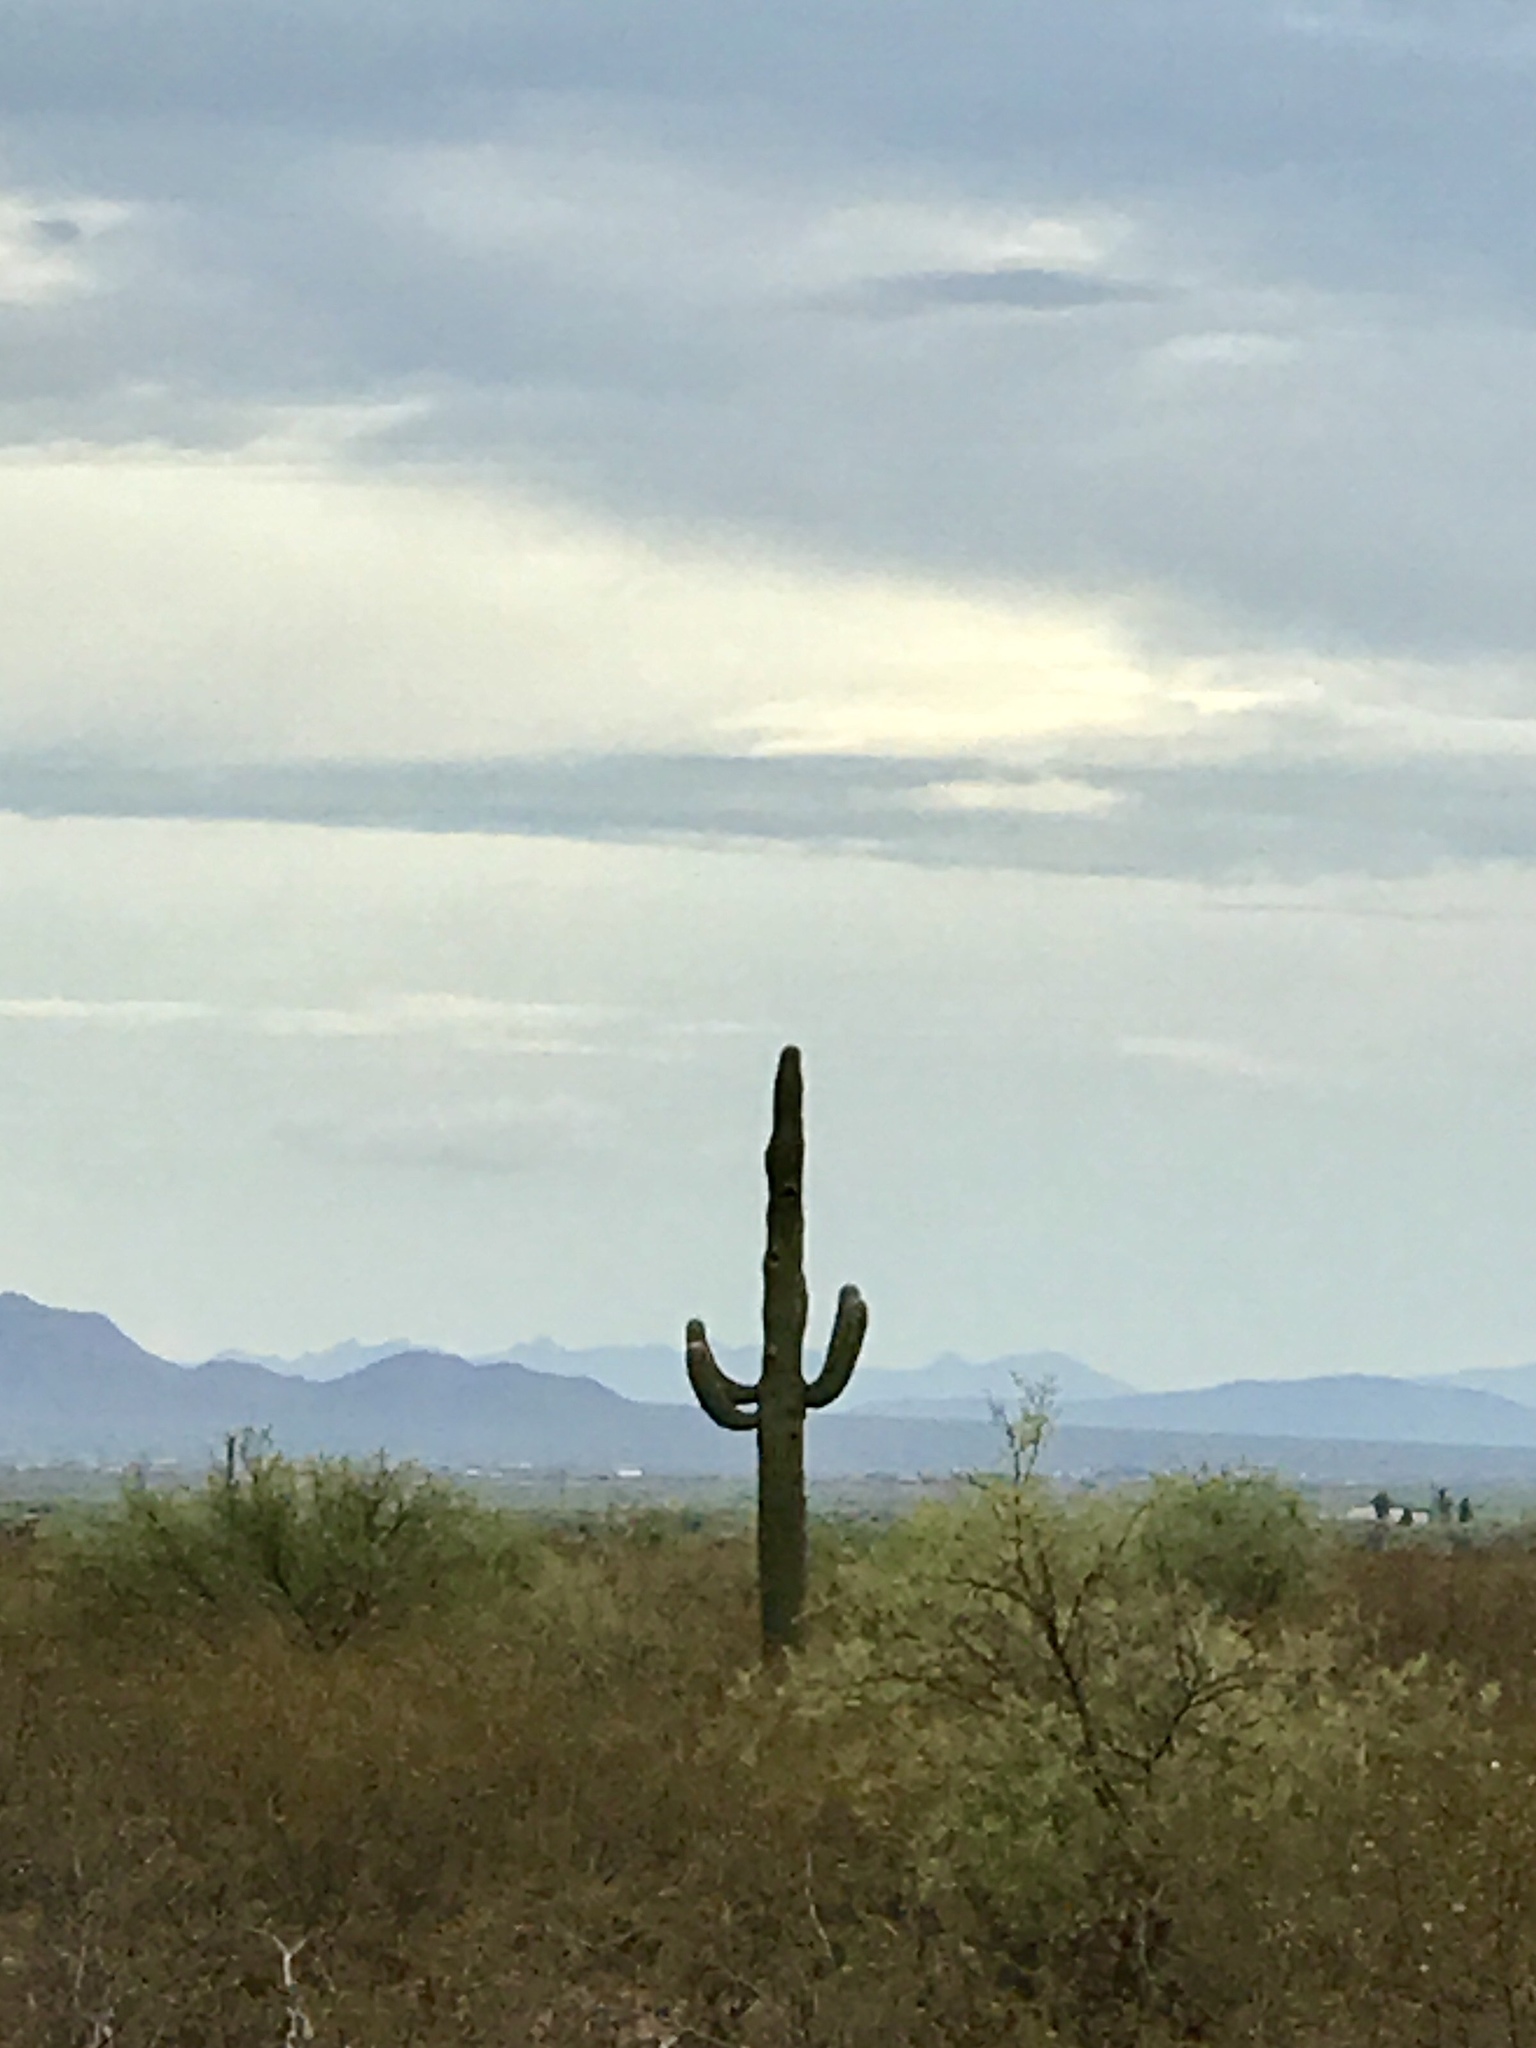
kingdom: Plantae
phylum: Tracheophyta
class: Magnoliopsida
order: Caryophyllales
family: Cactaceae
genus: Carnegiea
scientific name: Carnegiea gigantea
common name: Saguaro
